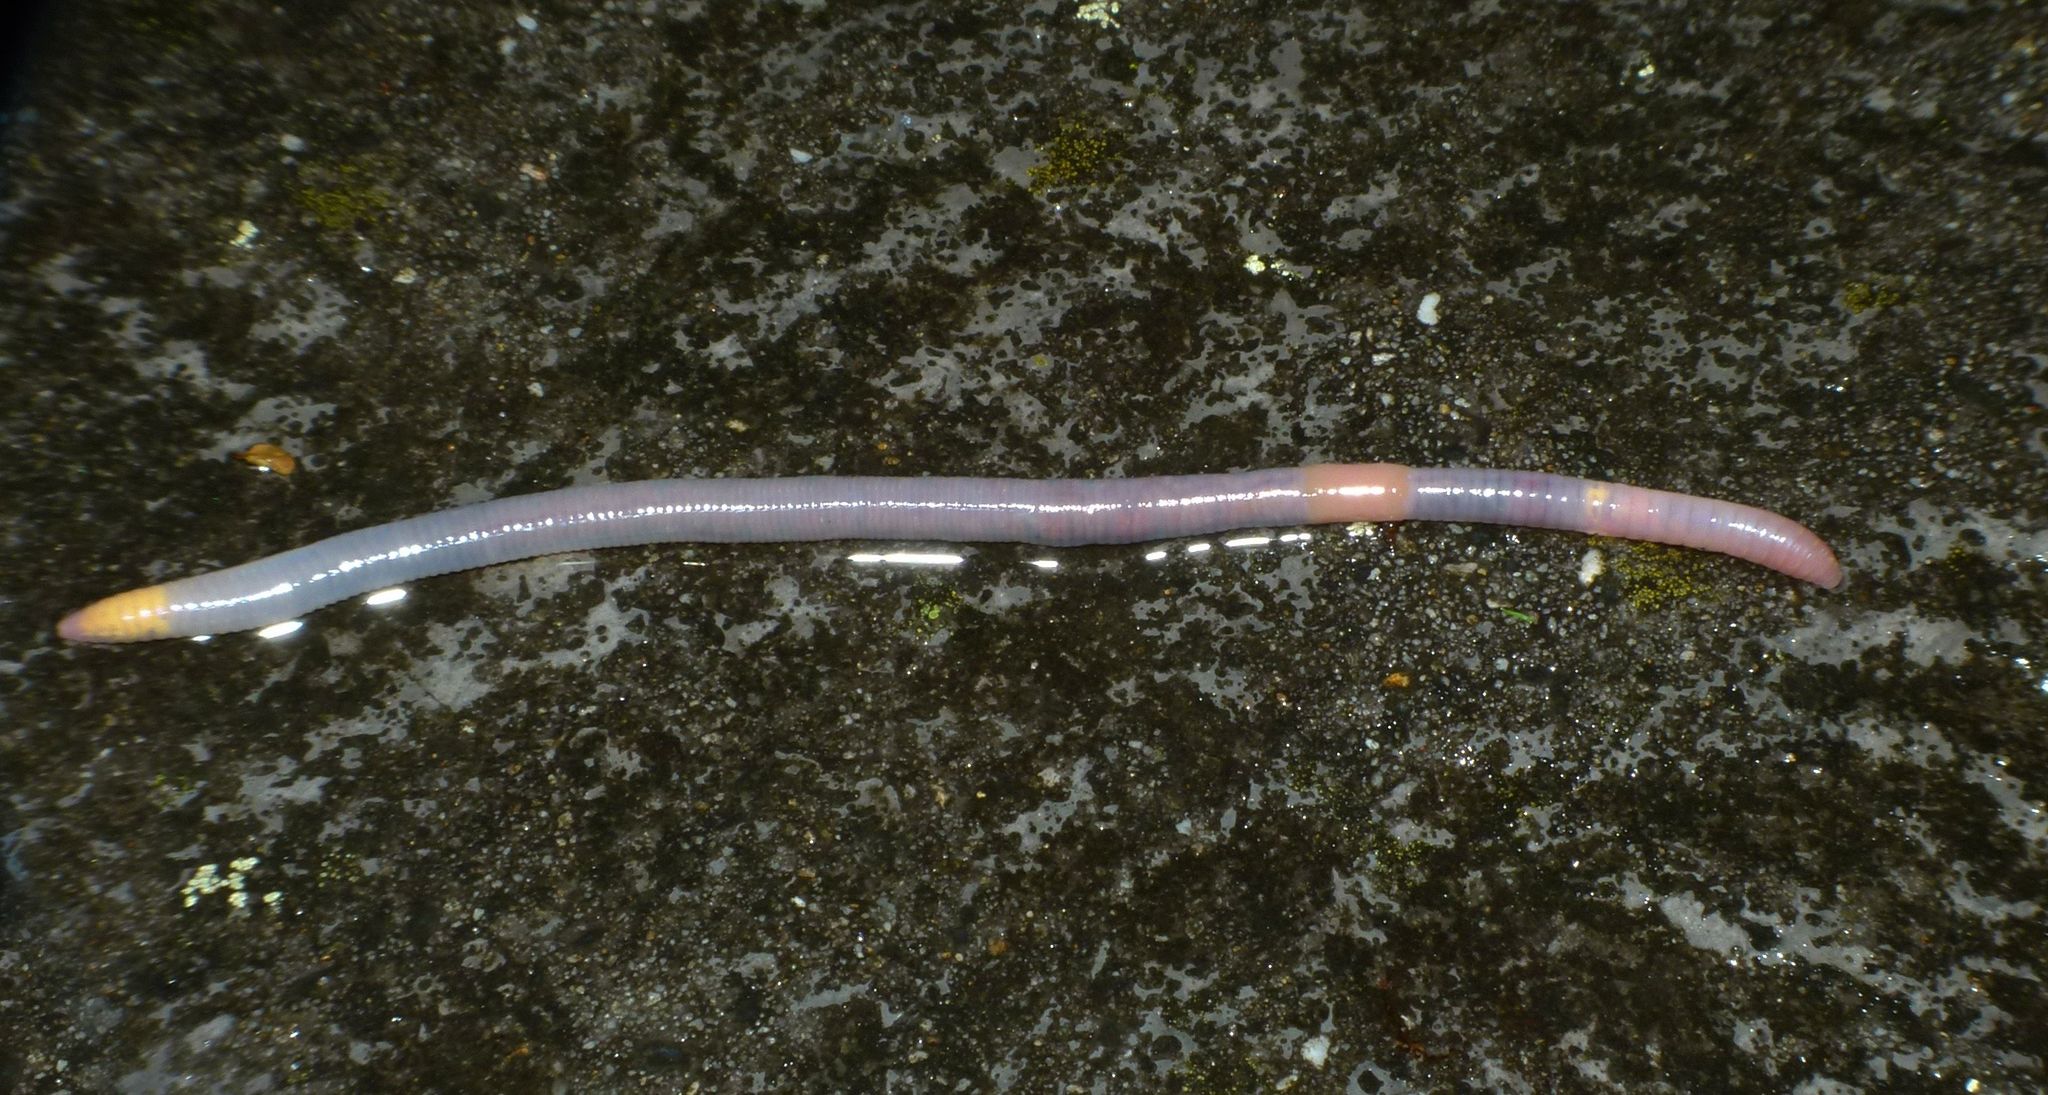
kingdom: Animalia
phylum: Annelida
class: Clitellata
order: Crassiclitellata
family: Lumbricidae
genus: Octolasion
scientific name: Octolasion cyaneum
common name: Woodland blue worm
